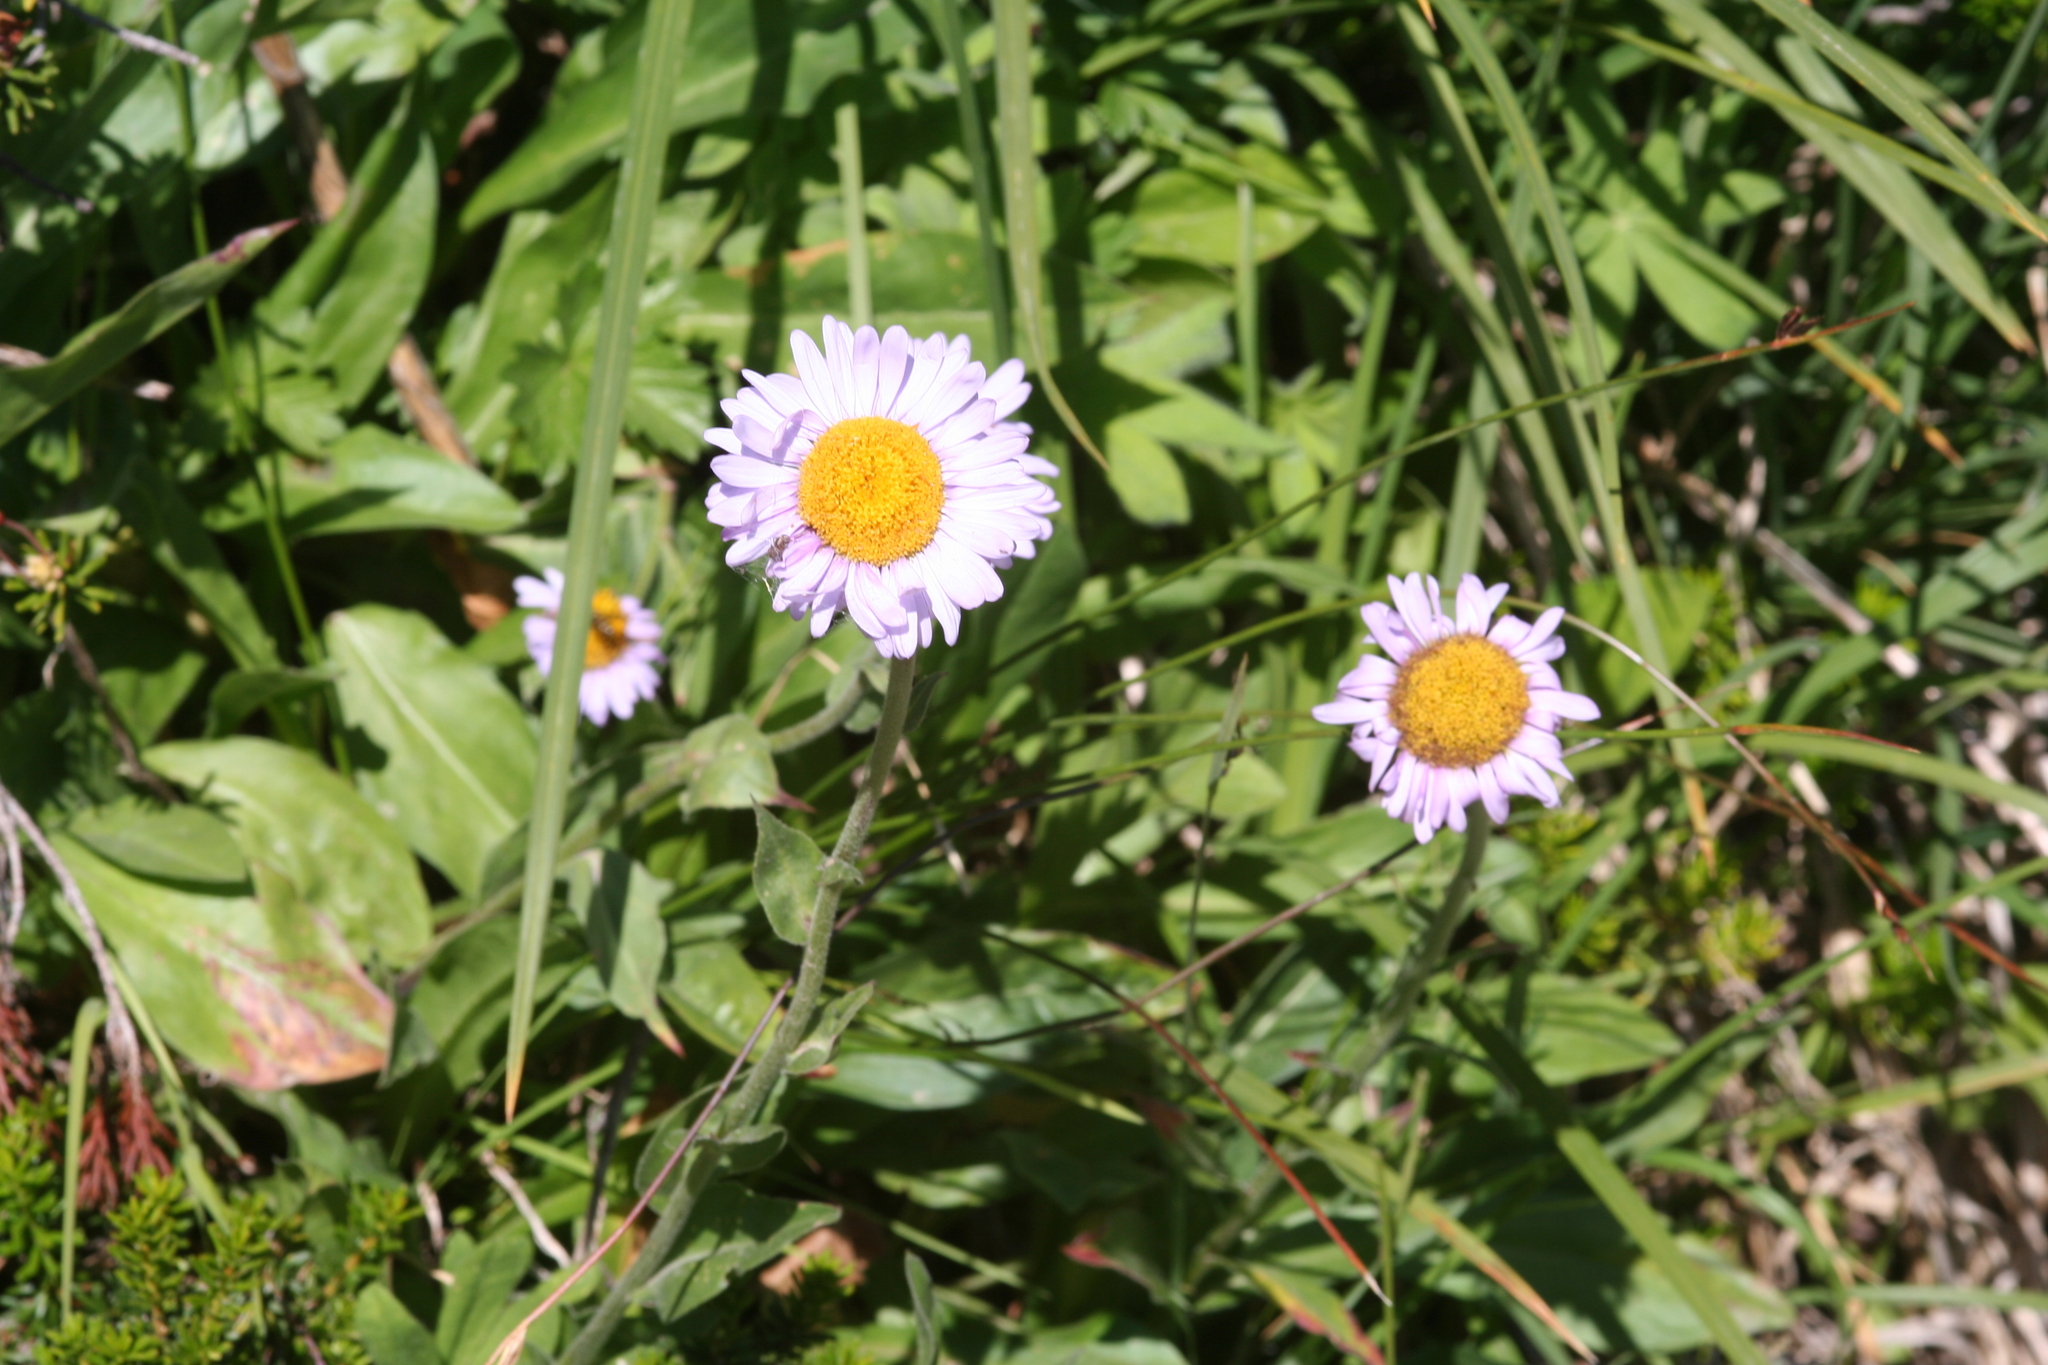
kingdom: Plantae
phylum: Tracheophyta
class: Magnoliopsida
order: Asterales
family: Asteraceae
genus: Erigeron
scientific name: Erigeron glacialis
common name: Subalpine fleabane
